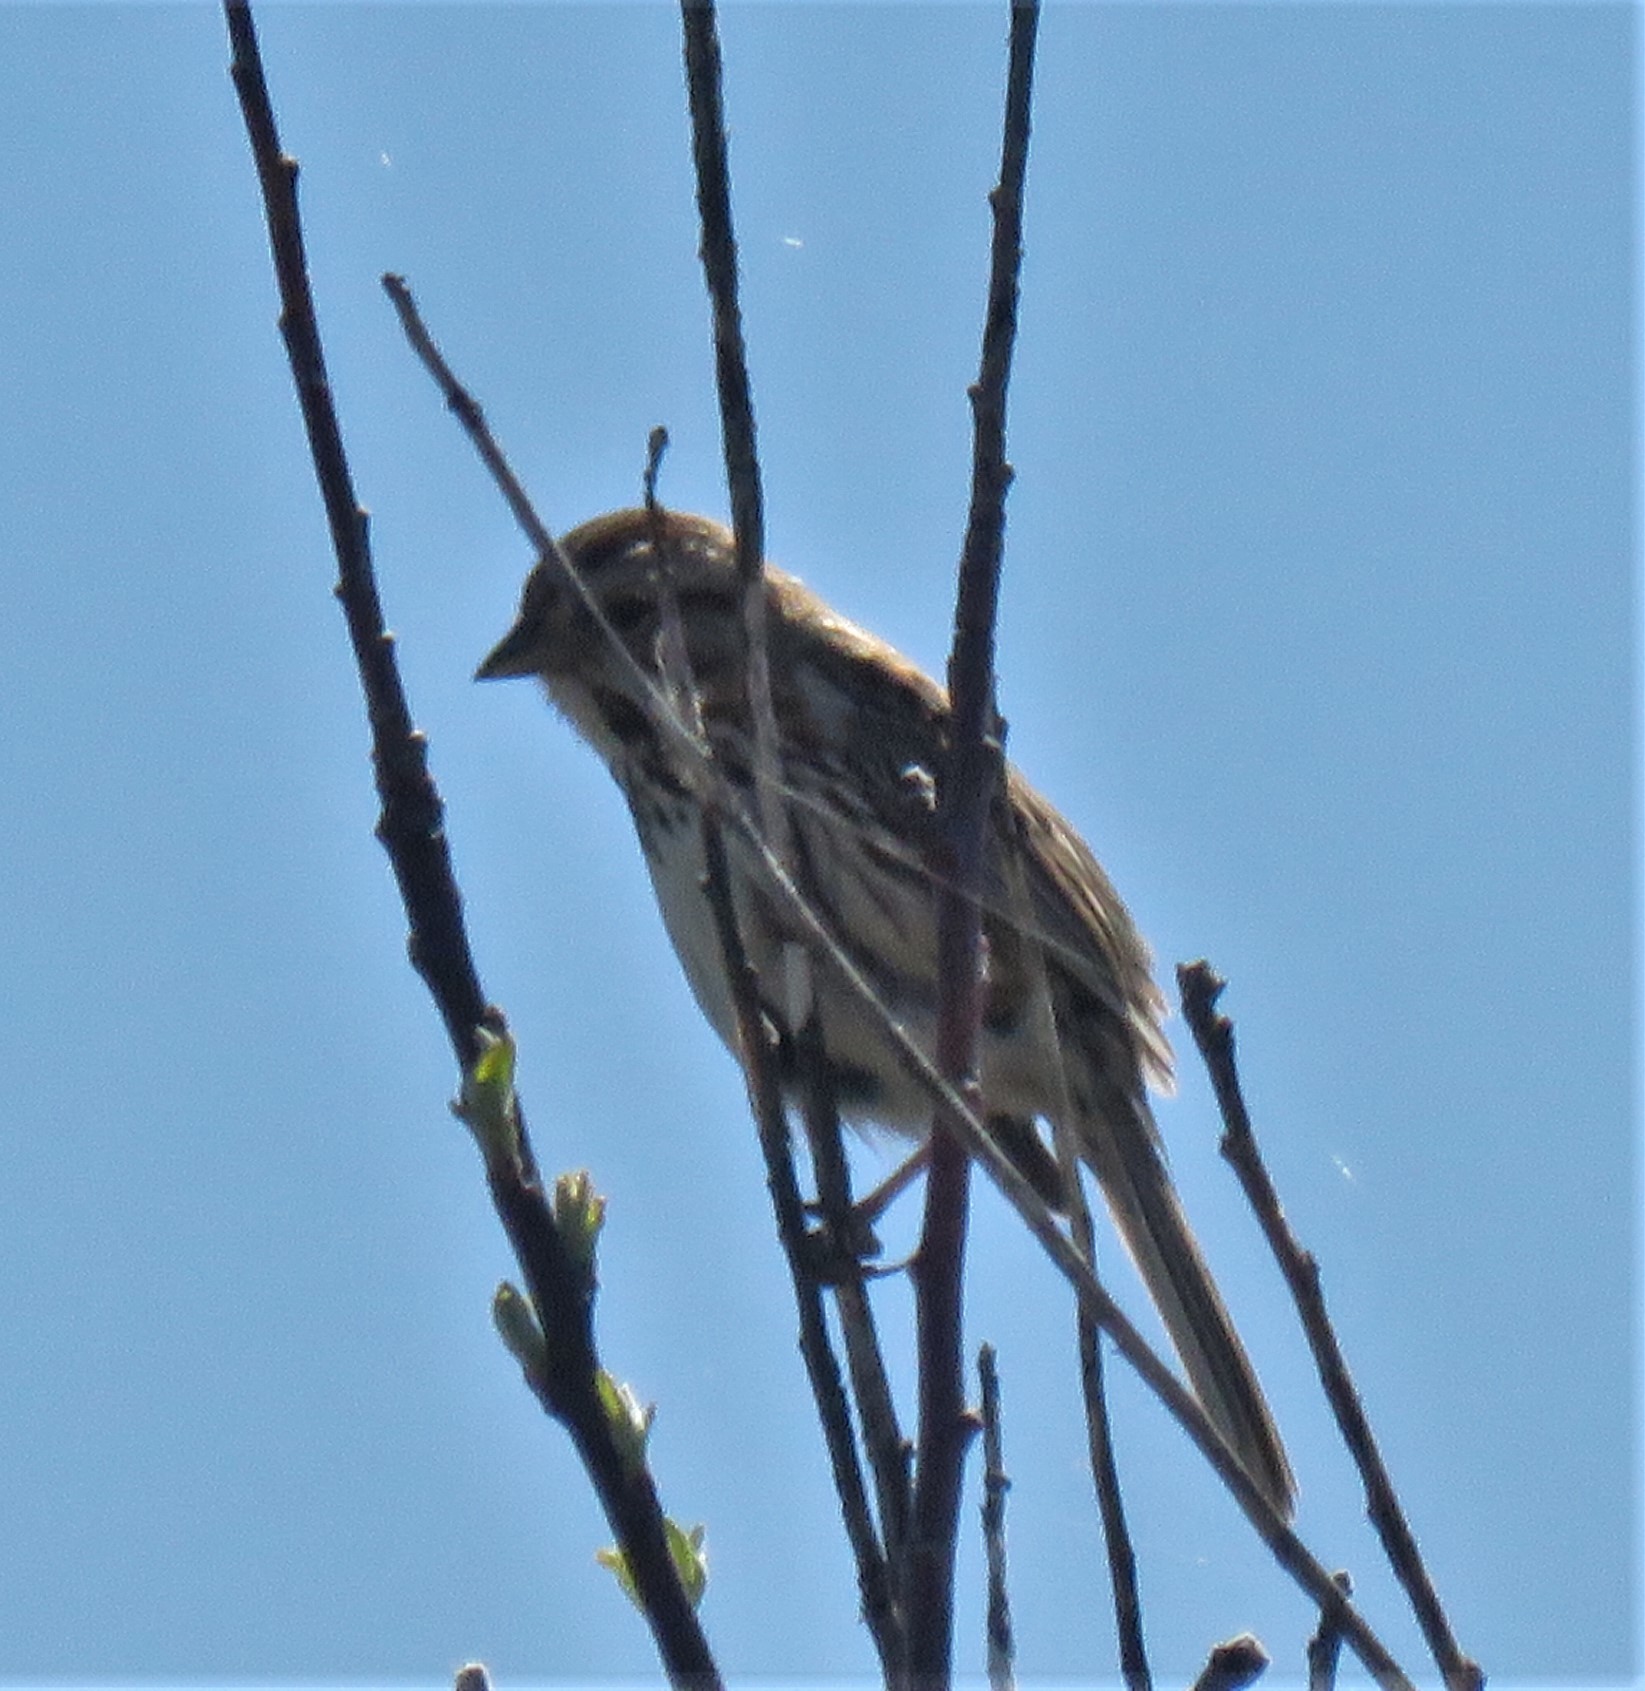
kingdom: Animalia
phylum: Chordata
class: Aves
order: Passeriformes
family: Passerellidae
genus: Melospiza
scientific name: Melospiza melodia
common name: Song sparrow
